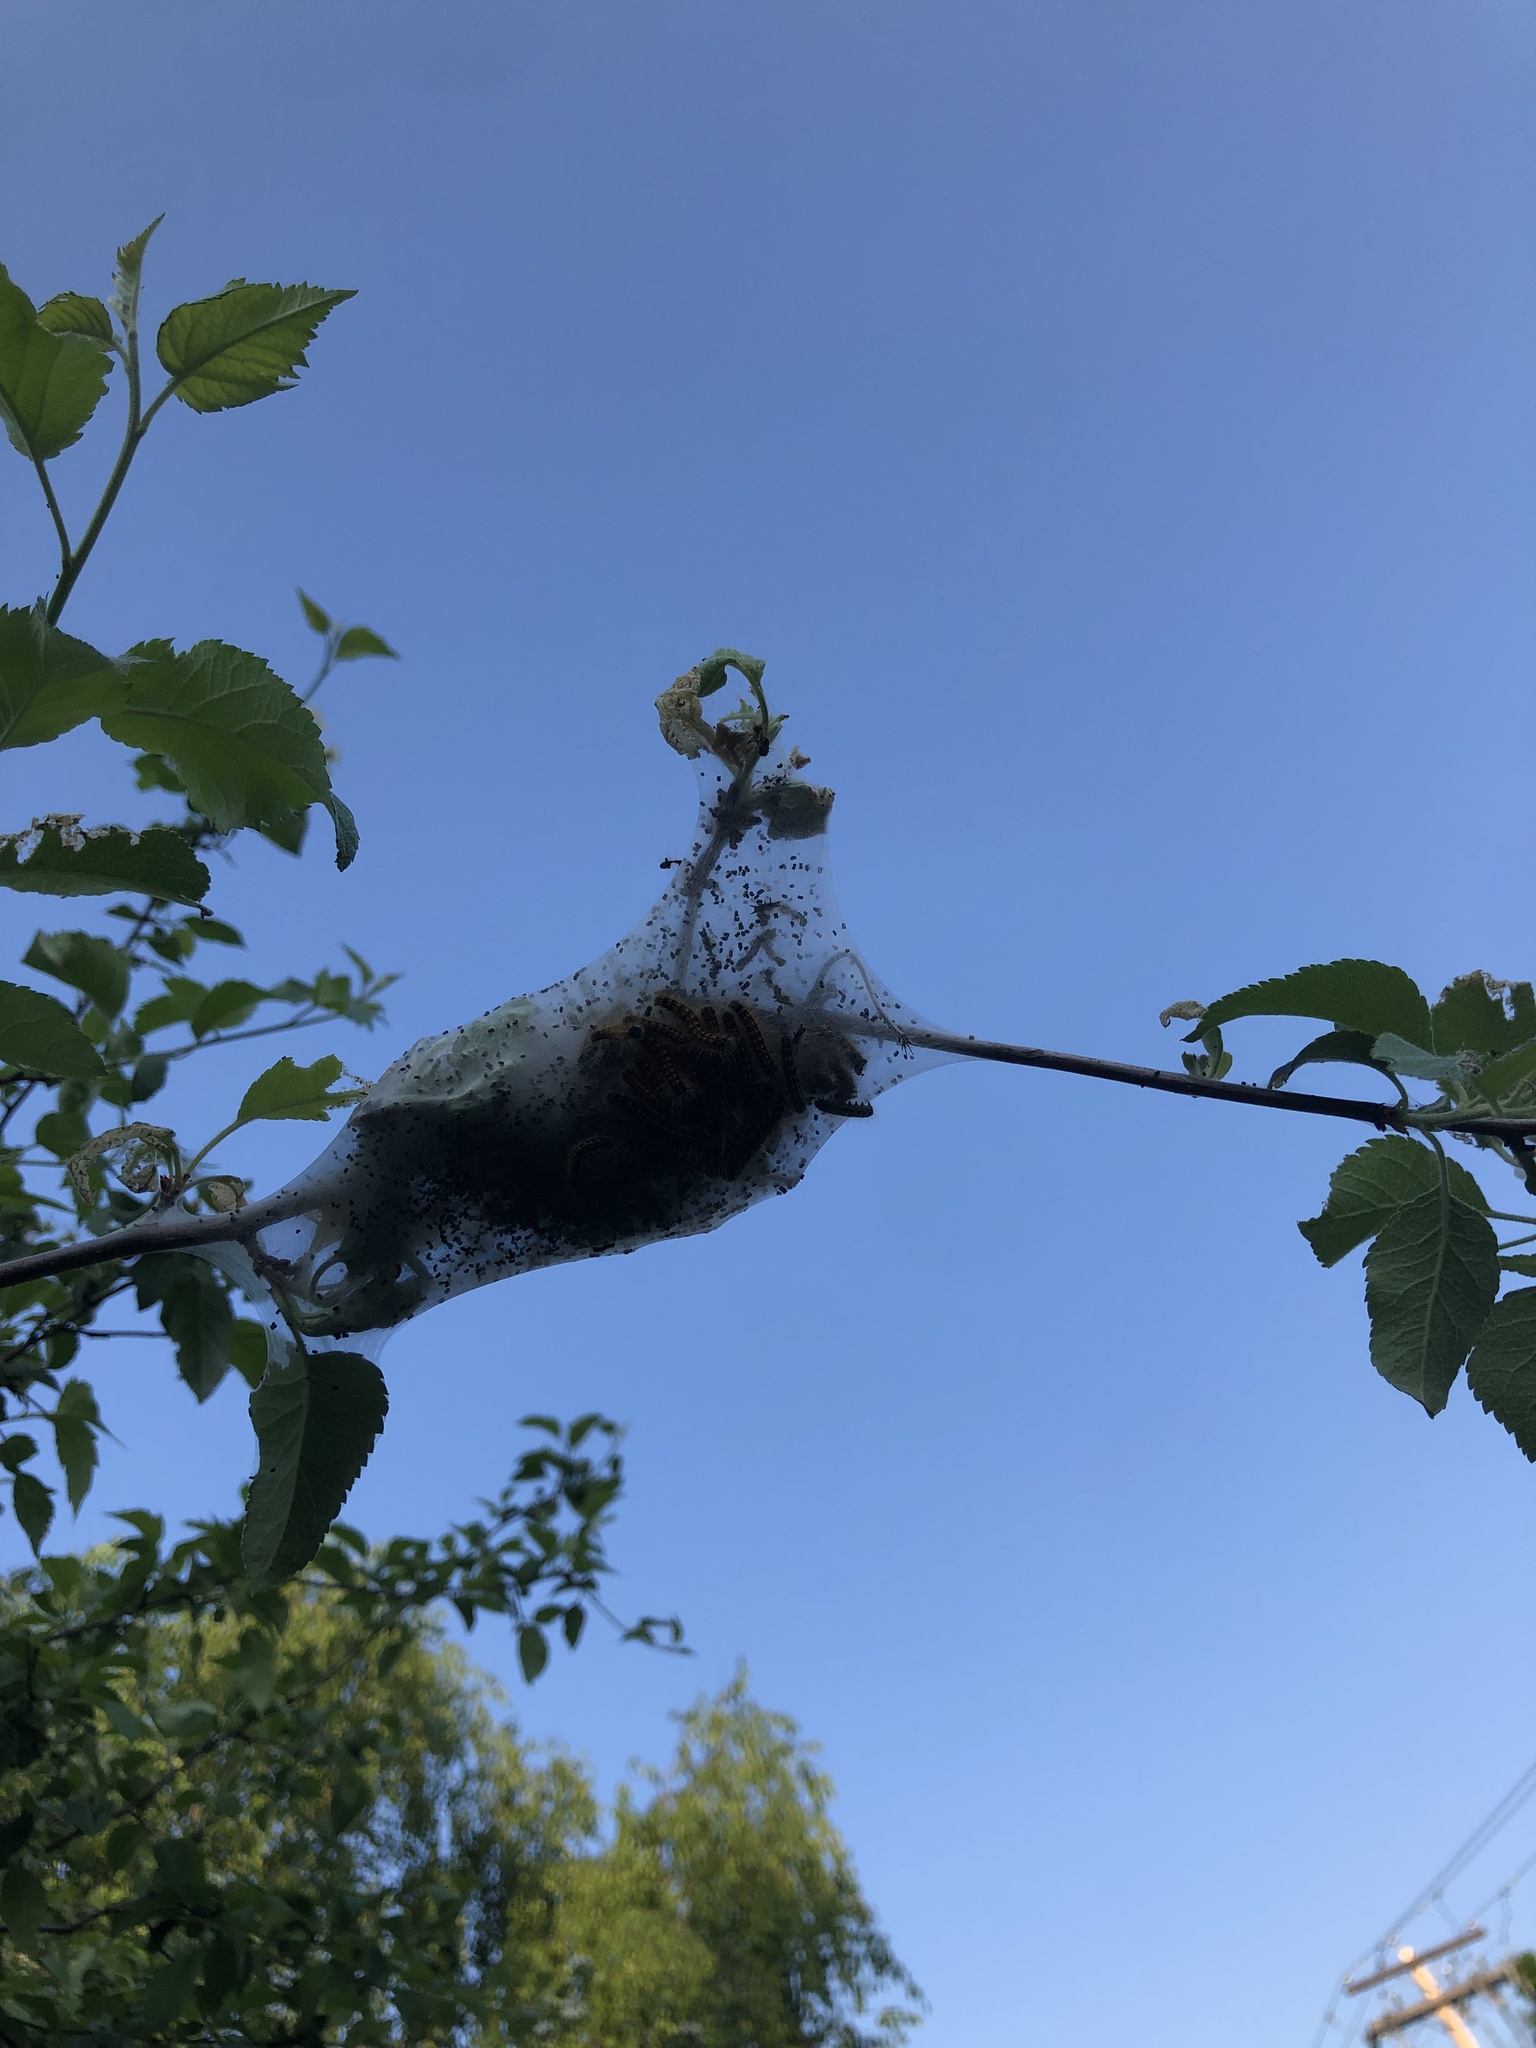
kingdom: Animalia
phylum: Arthropoda
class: Insecta
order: Lepidoptera
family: Lasiocampidae
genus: Malacosoma
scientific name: Malacosoma californica
